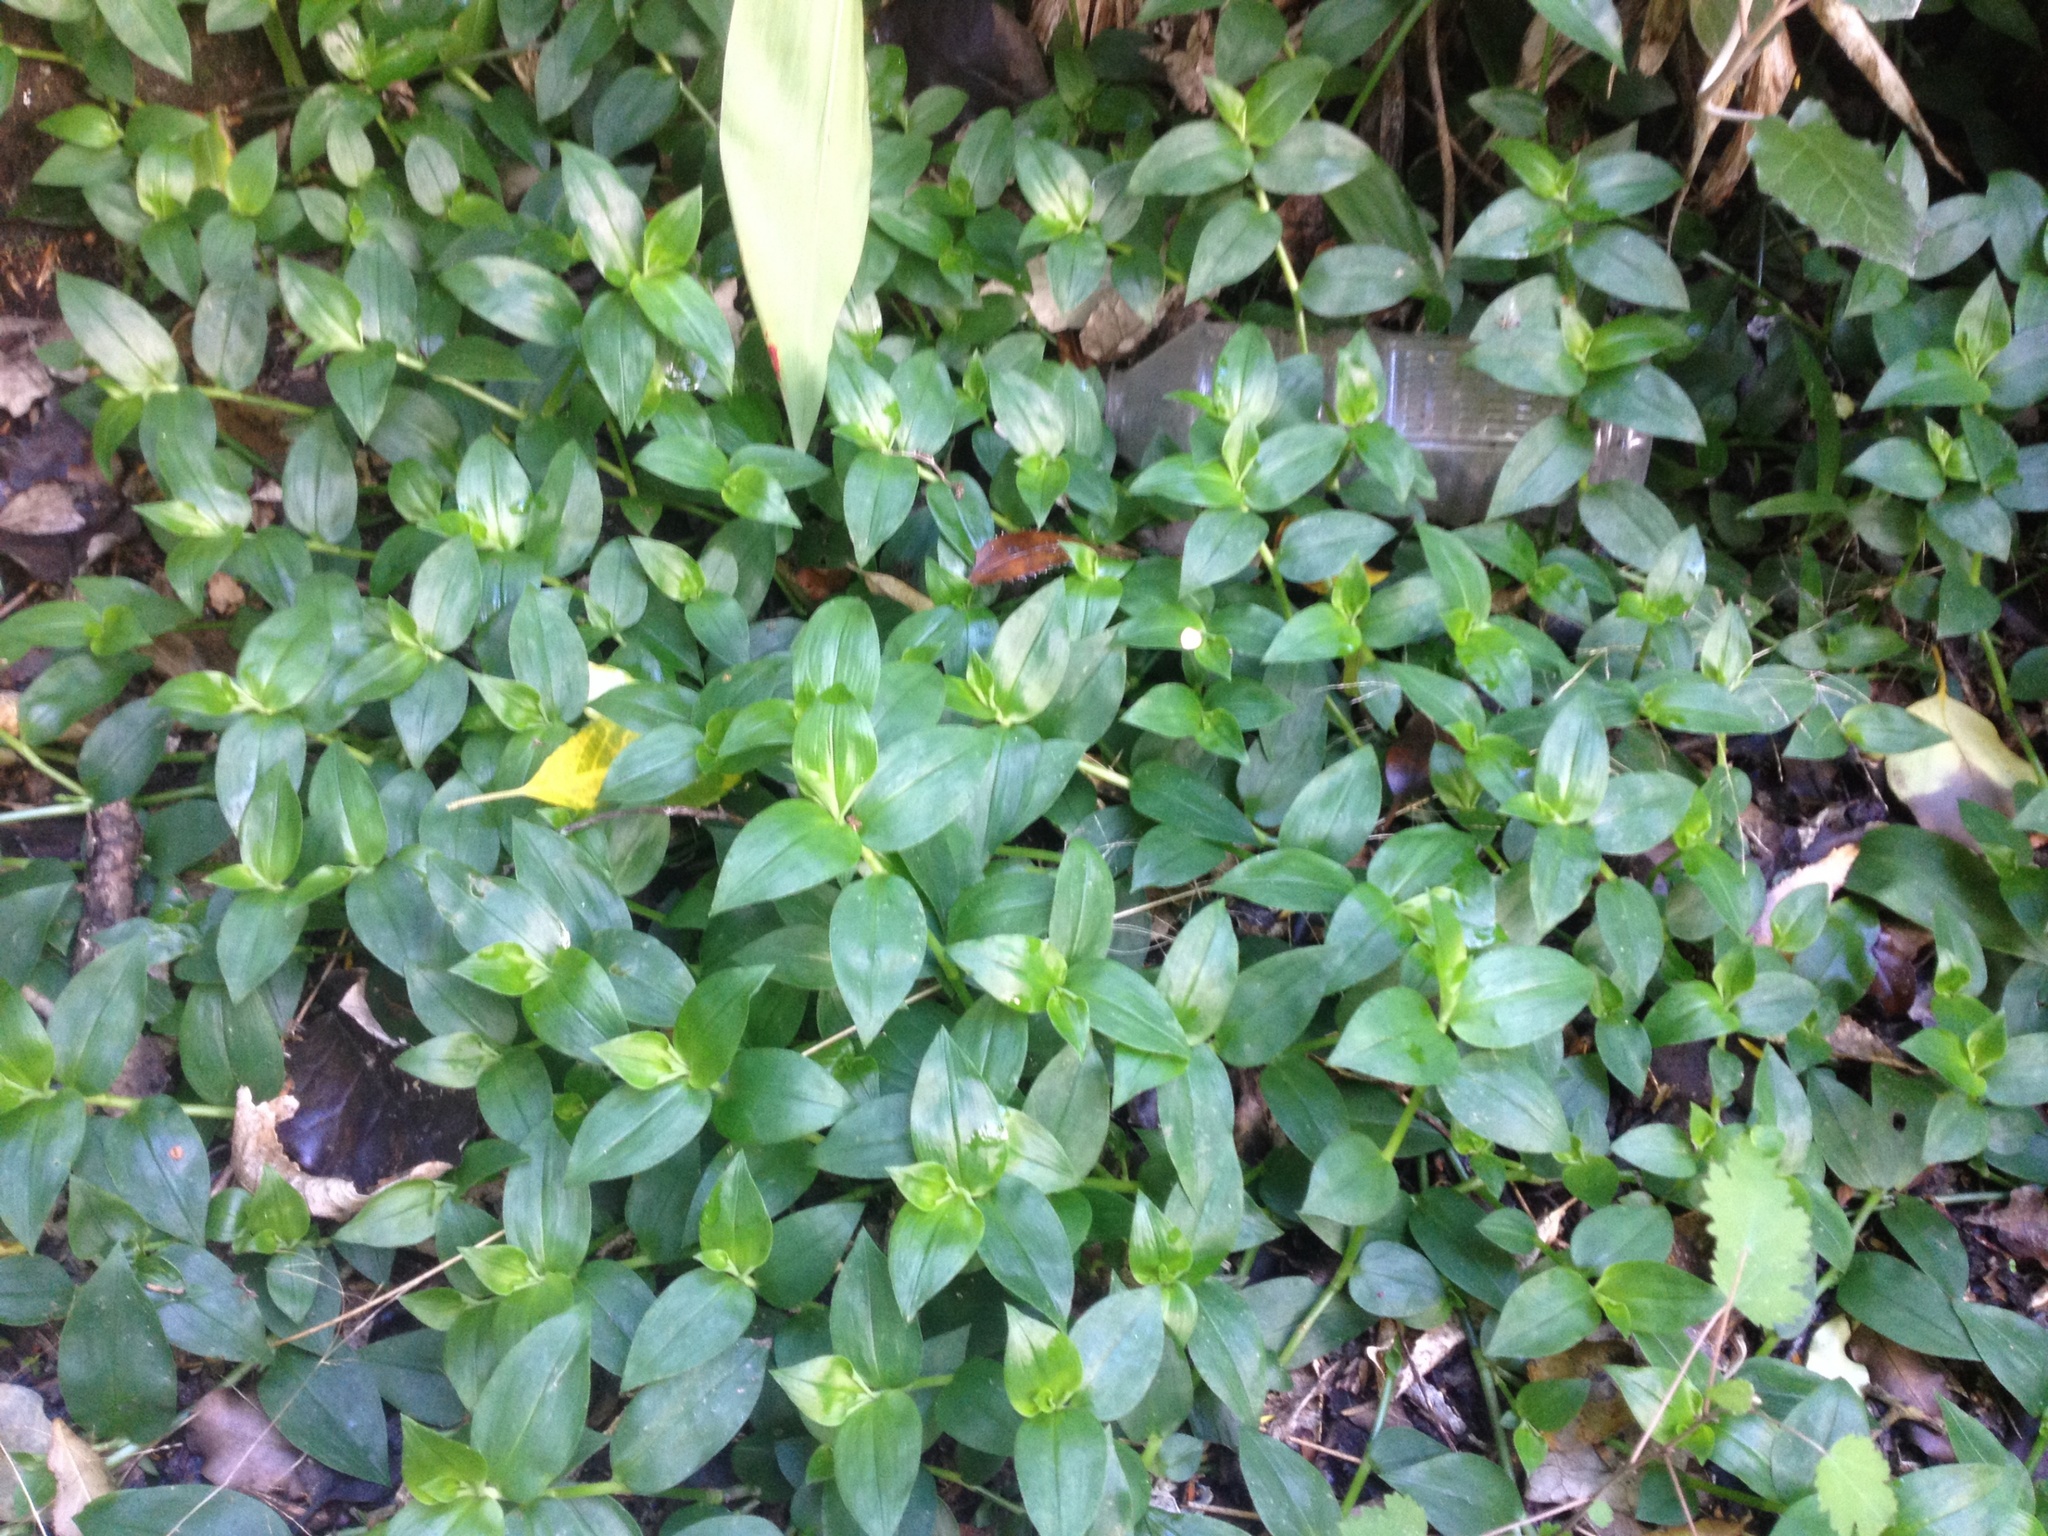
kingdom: Plantae
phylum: Tracheophyta
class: Liliopsida
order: Commelinales
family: Commelinaceae
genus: Tradescantia
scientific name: Tradescantia fluminensis
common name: Wandering-jew
